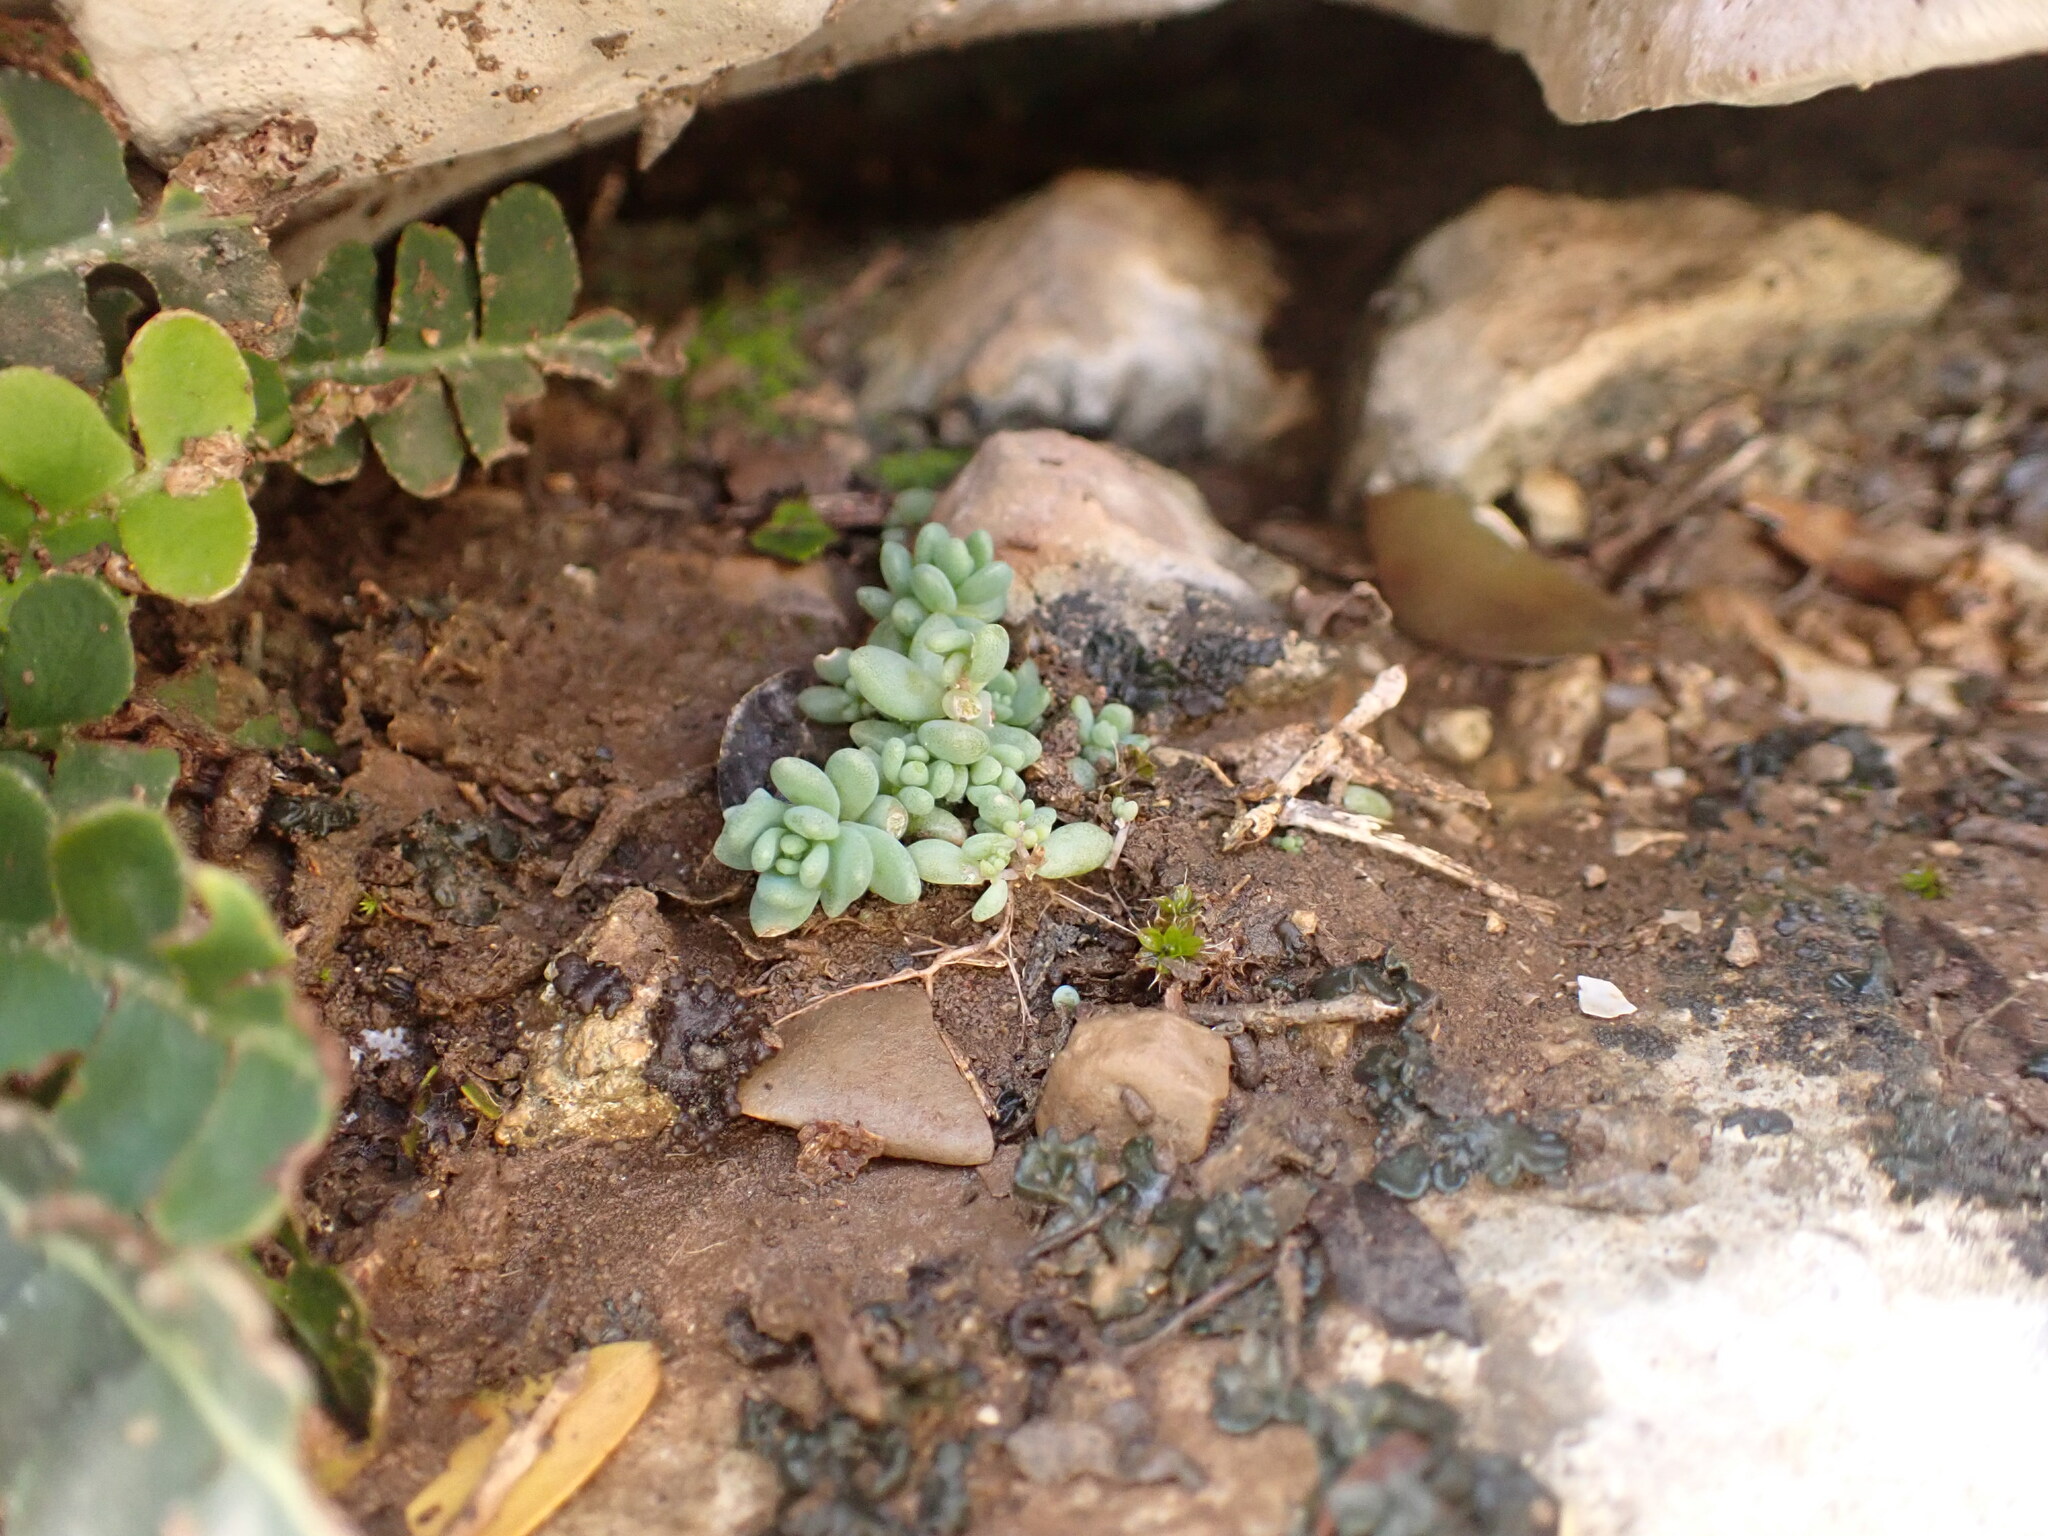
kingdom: Plantae
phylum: Tracheophyta
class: Magnoliopsida
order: Saxifragales
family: Crassulaceae
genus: Sedum
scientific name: Sedum dasyphyllum
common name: Thick-leaf stonecrop
